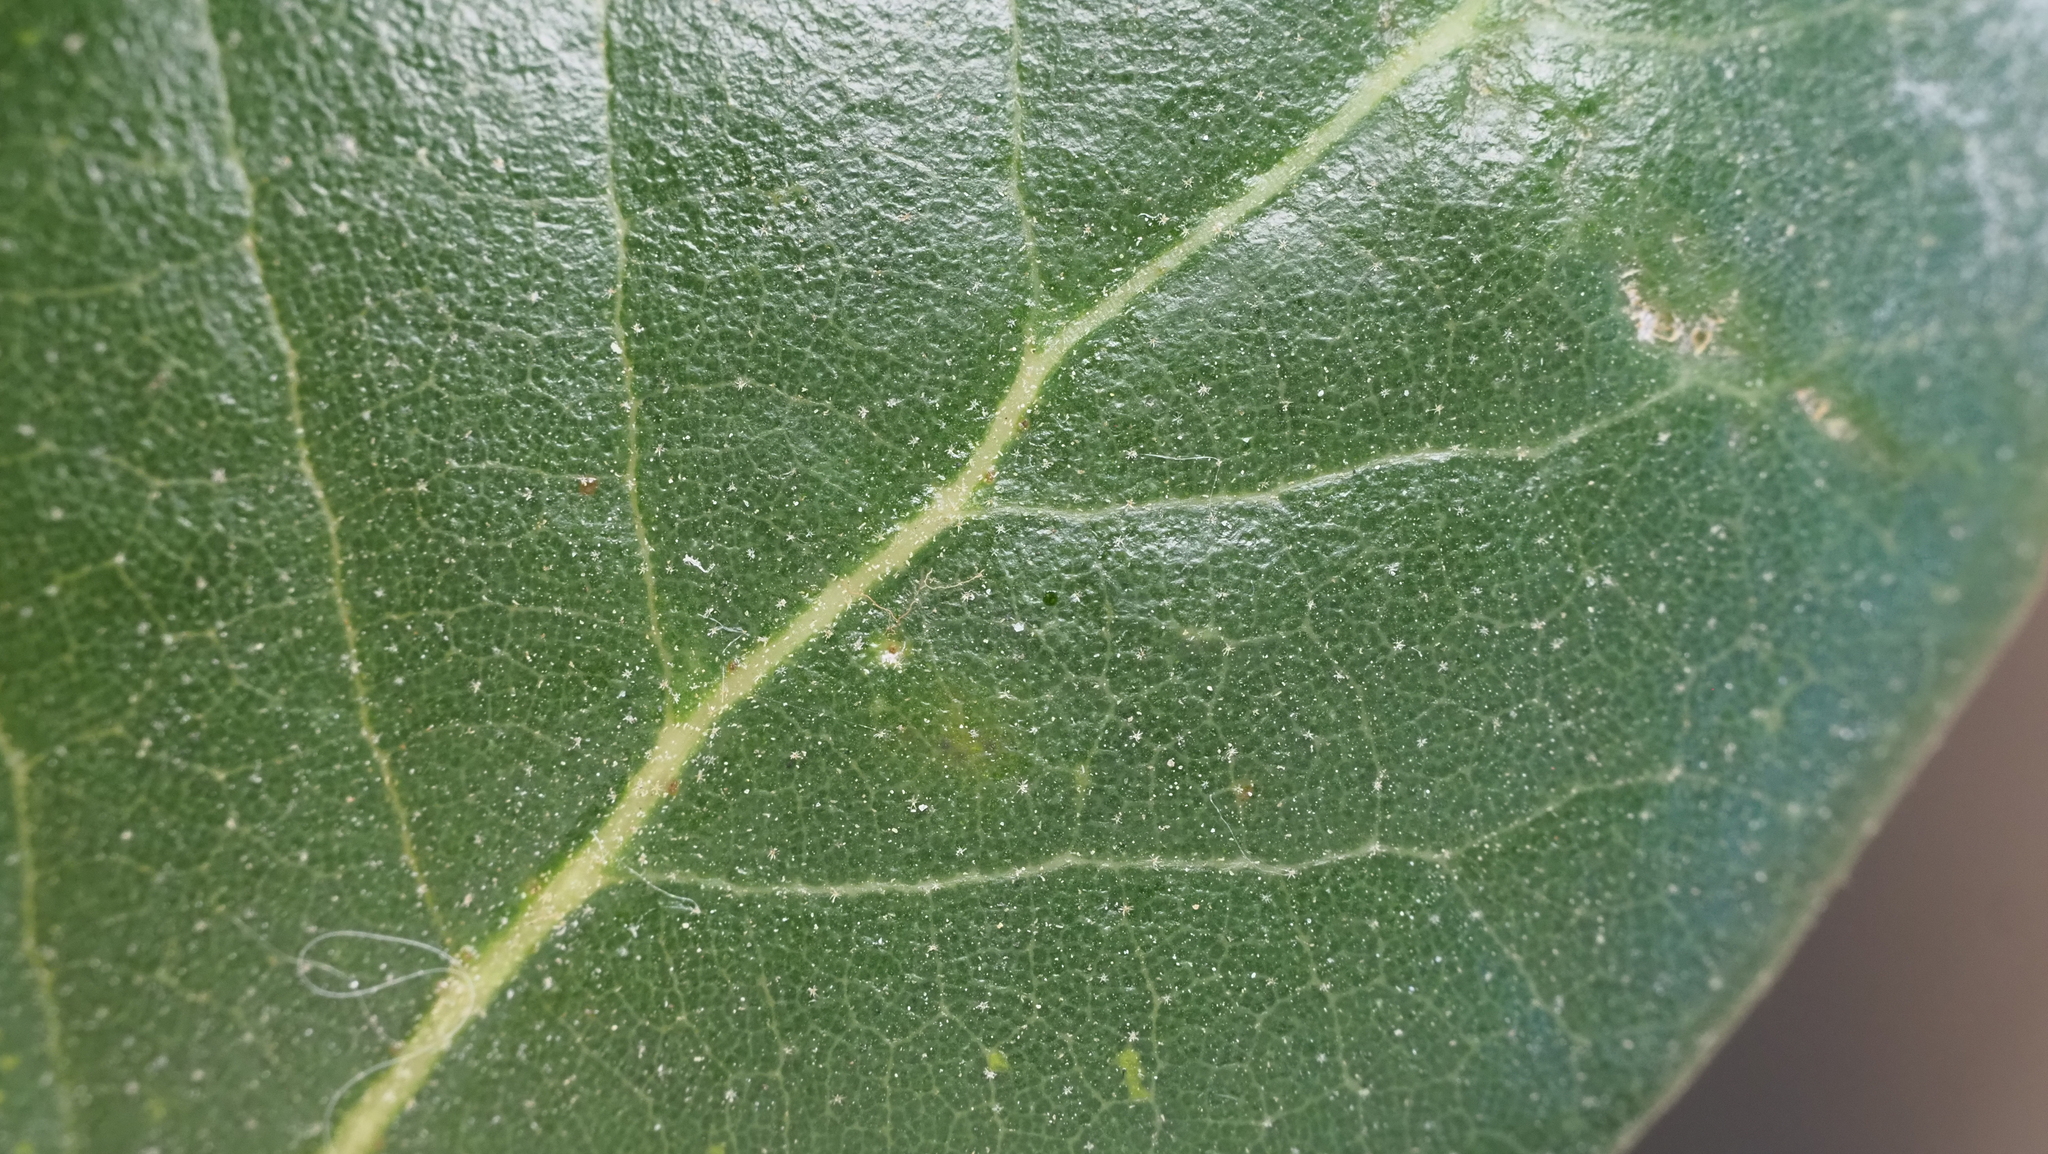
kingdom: Plantae
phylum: Tracheophyta
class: Magnoliopsida
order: Fagales
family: Fagaceae
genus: Quercus
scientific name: Quercus virginiana
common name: Southern live oak
